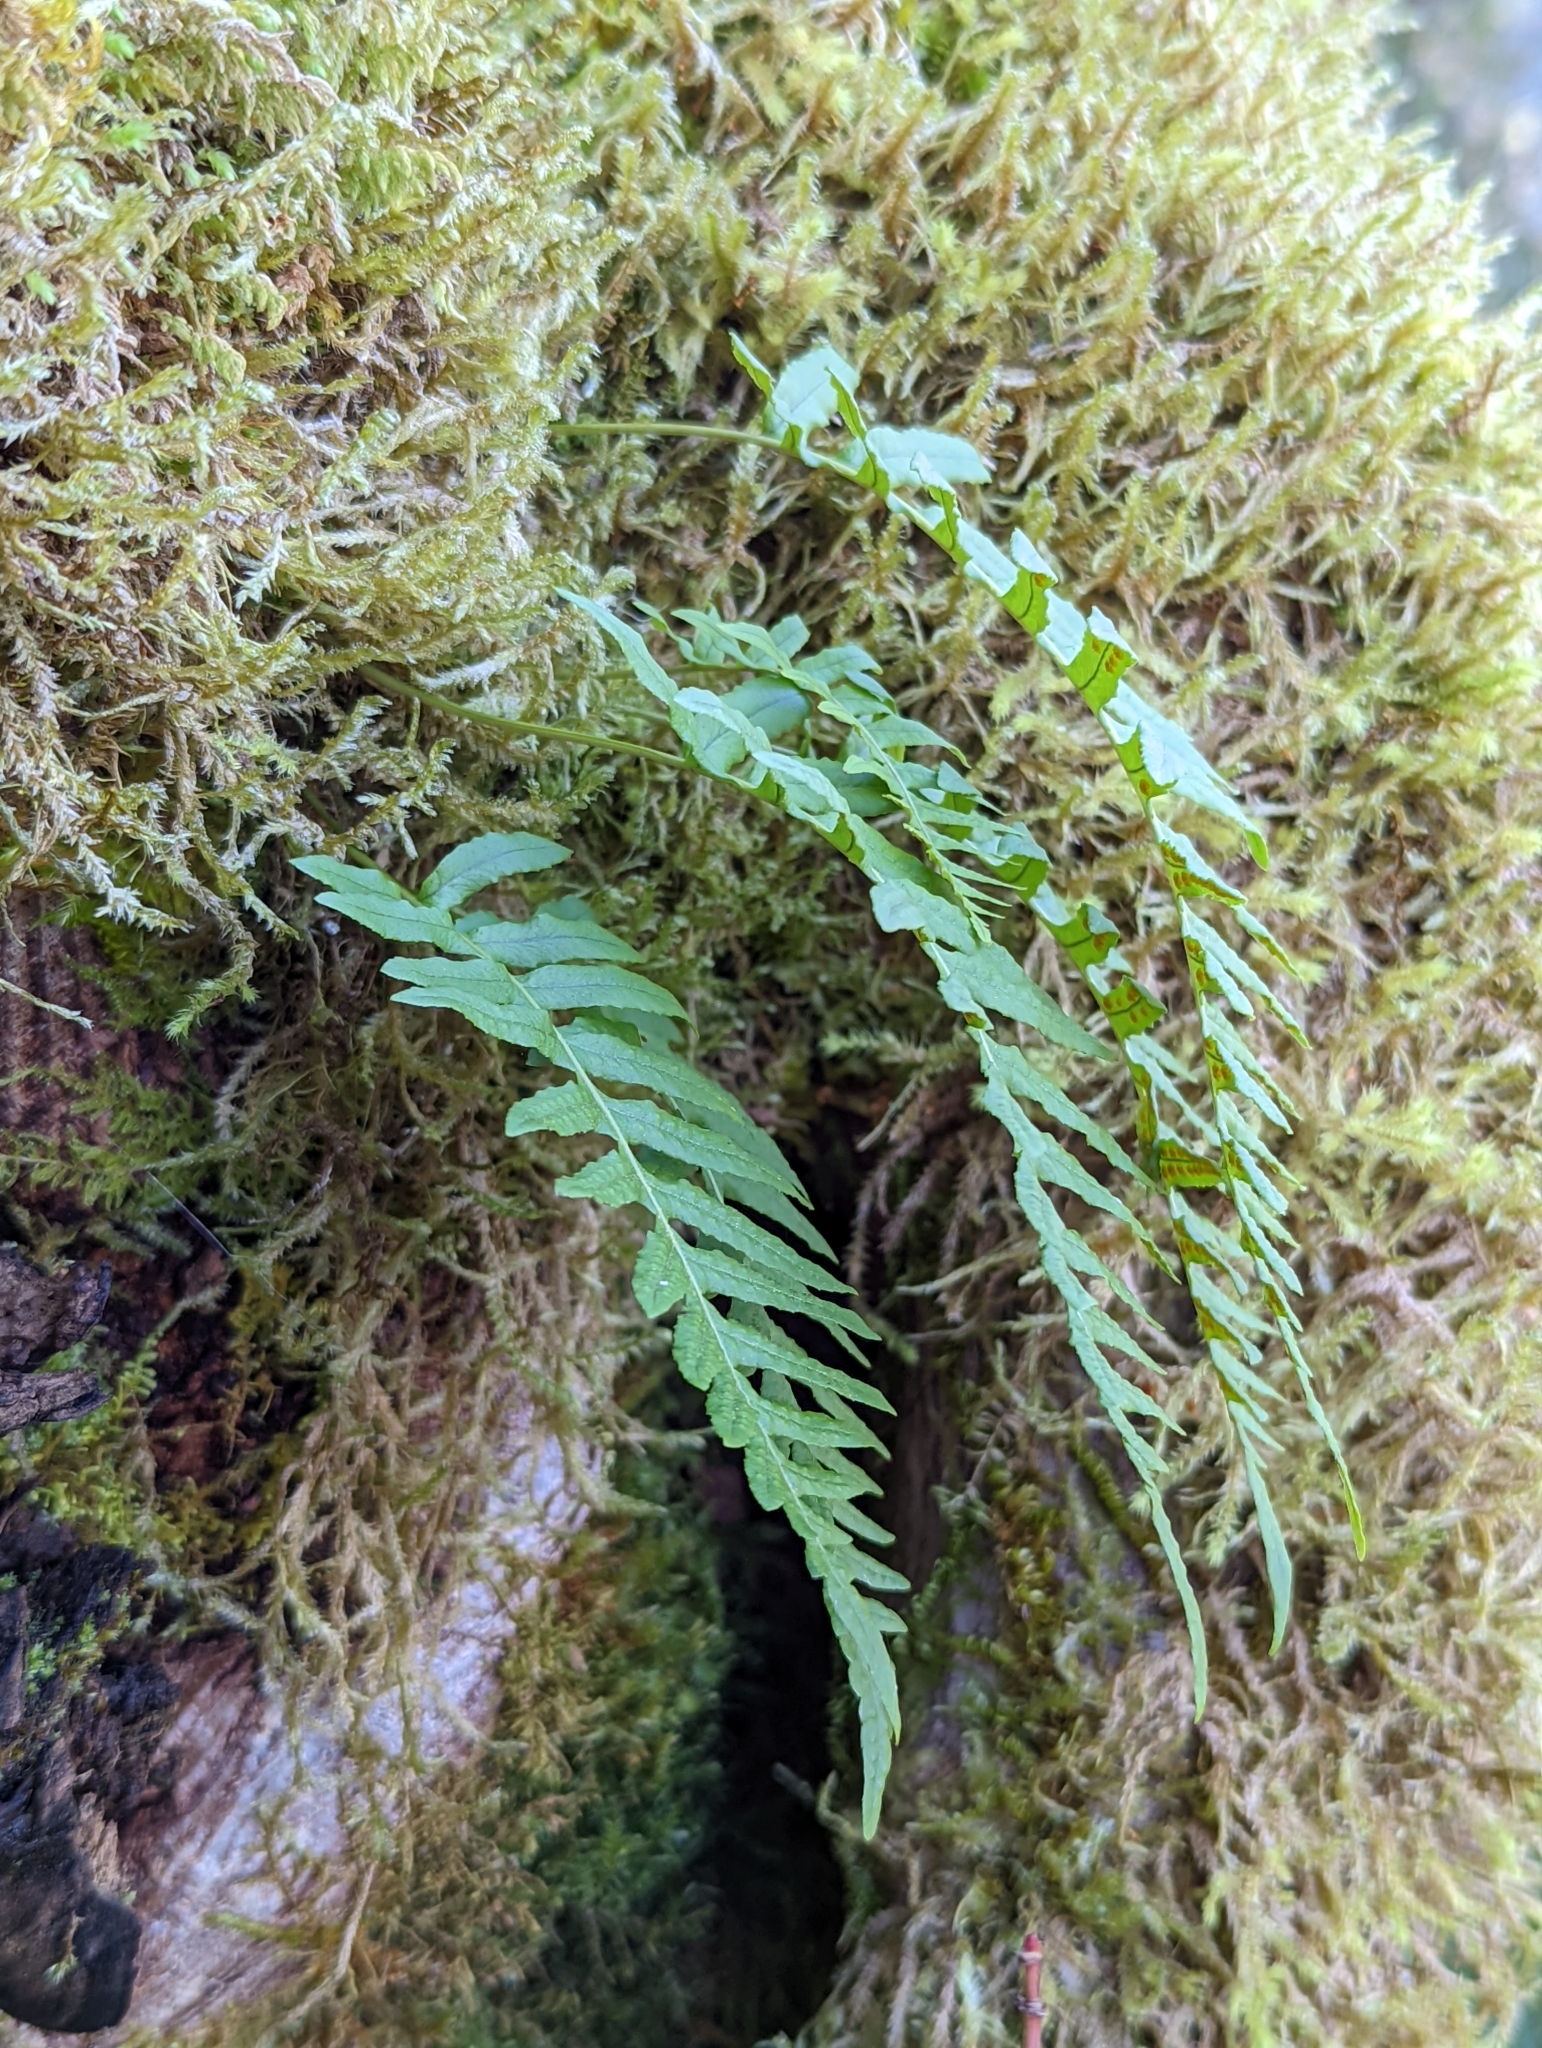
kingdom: Plantae
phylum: Tracheophyta
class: Polypodiopsida
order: Polypodiales
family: Polypodiaceae
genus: Polypodium
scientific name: Polypodium glycyrrhiza
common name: Licorice fern
